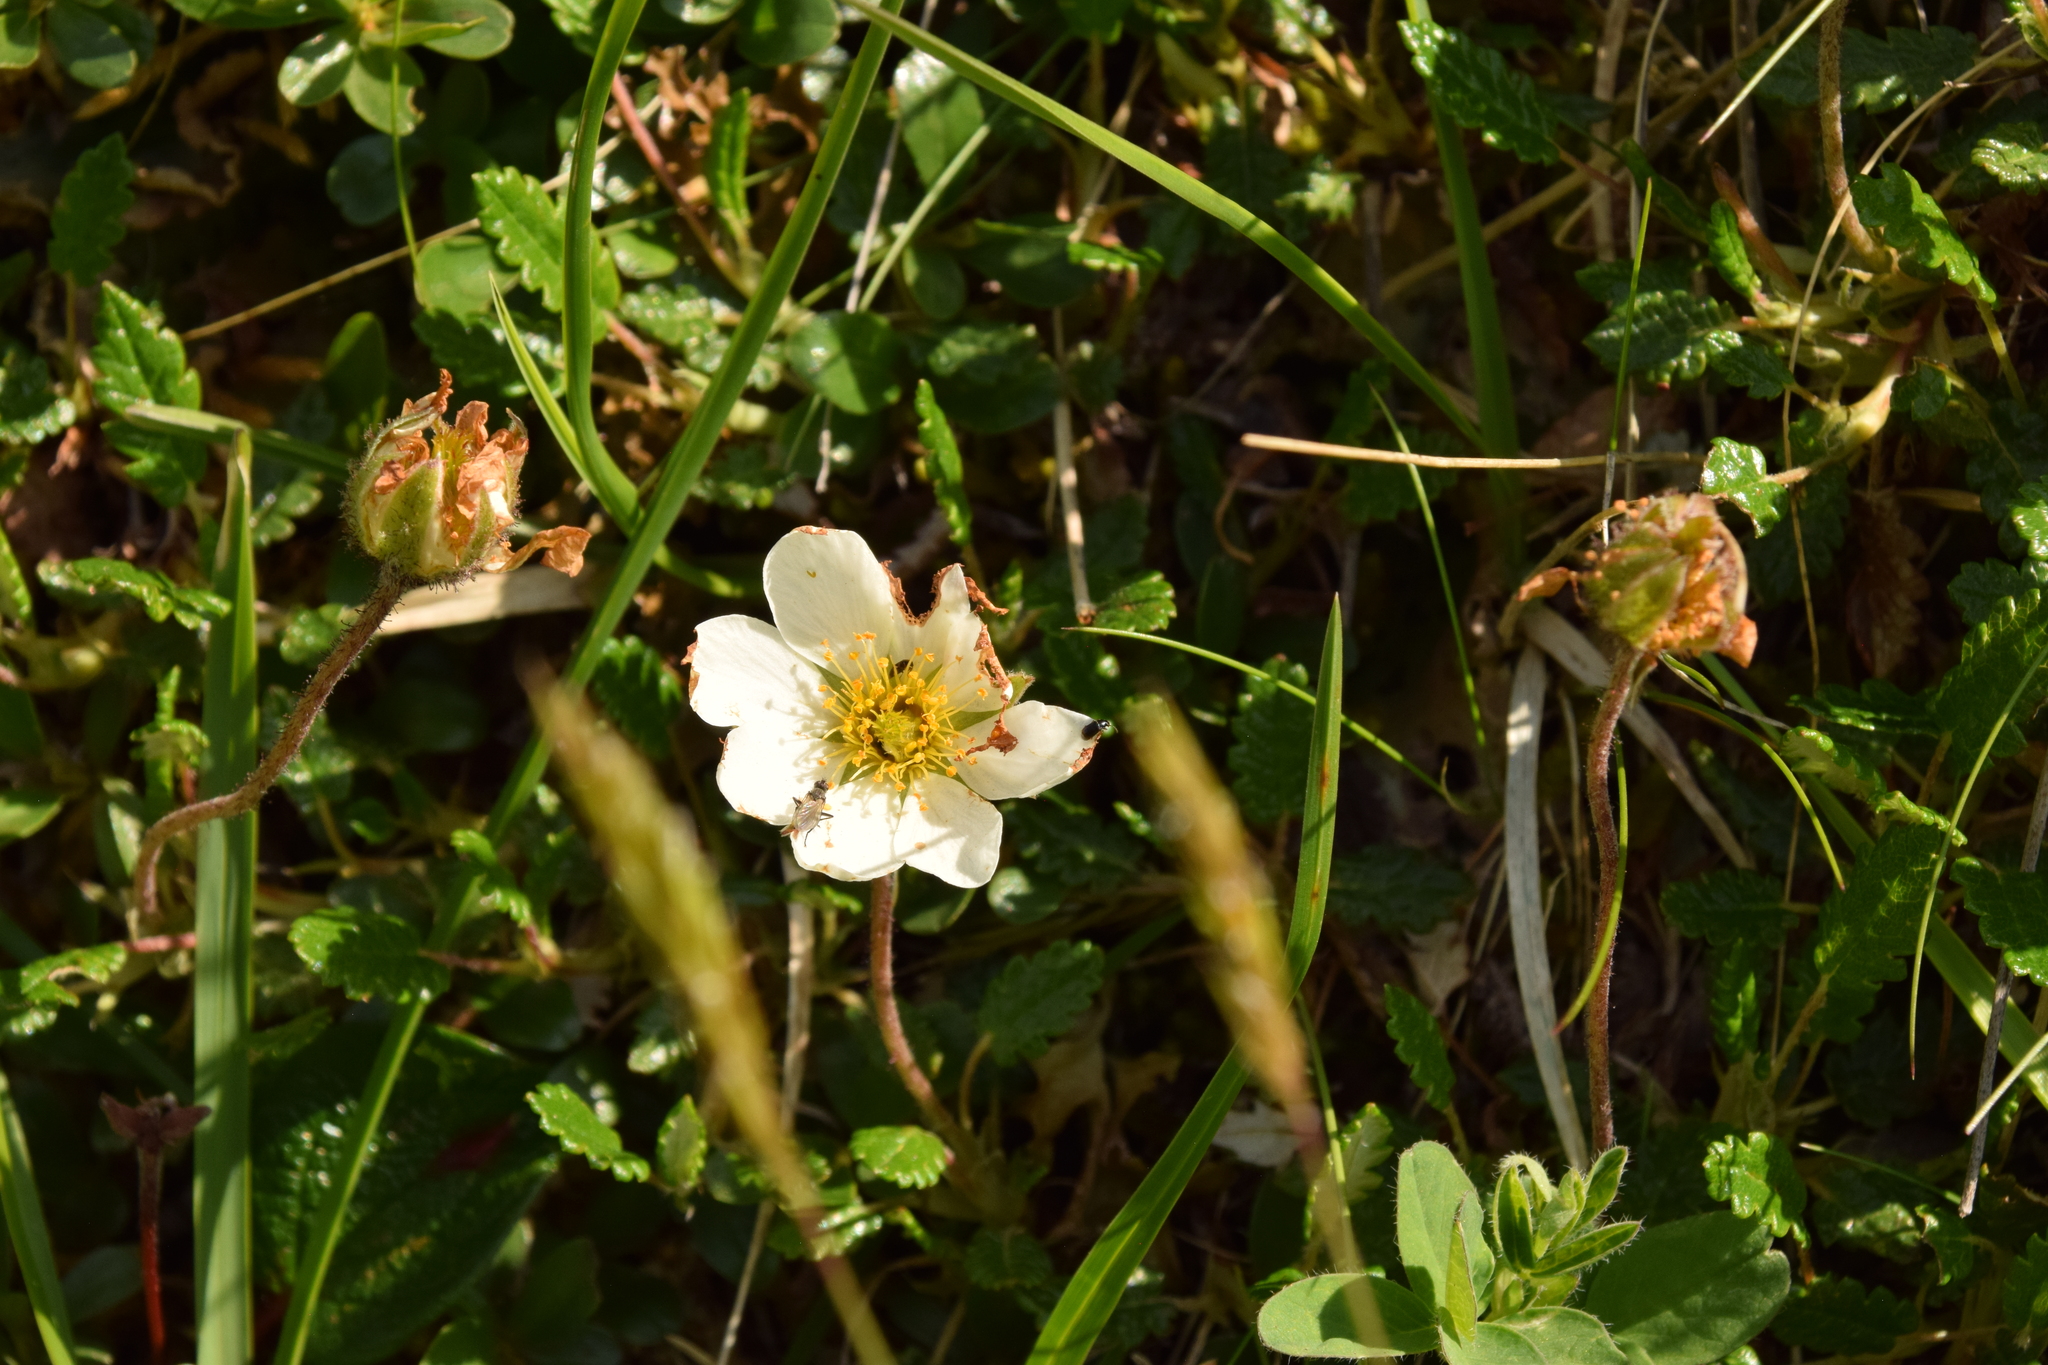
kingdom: Plantae
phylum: Tracheophyta
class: Magnoliopsida
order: Rosales
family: Rosaceae
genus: Dryas
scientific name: Dryas octopetala
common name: Eight-petal mountain-avens
